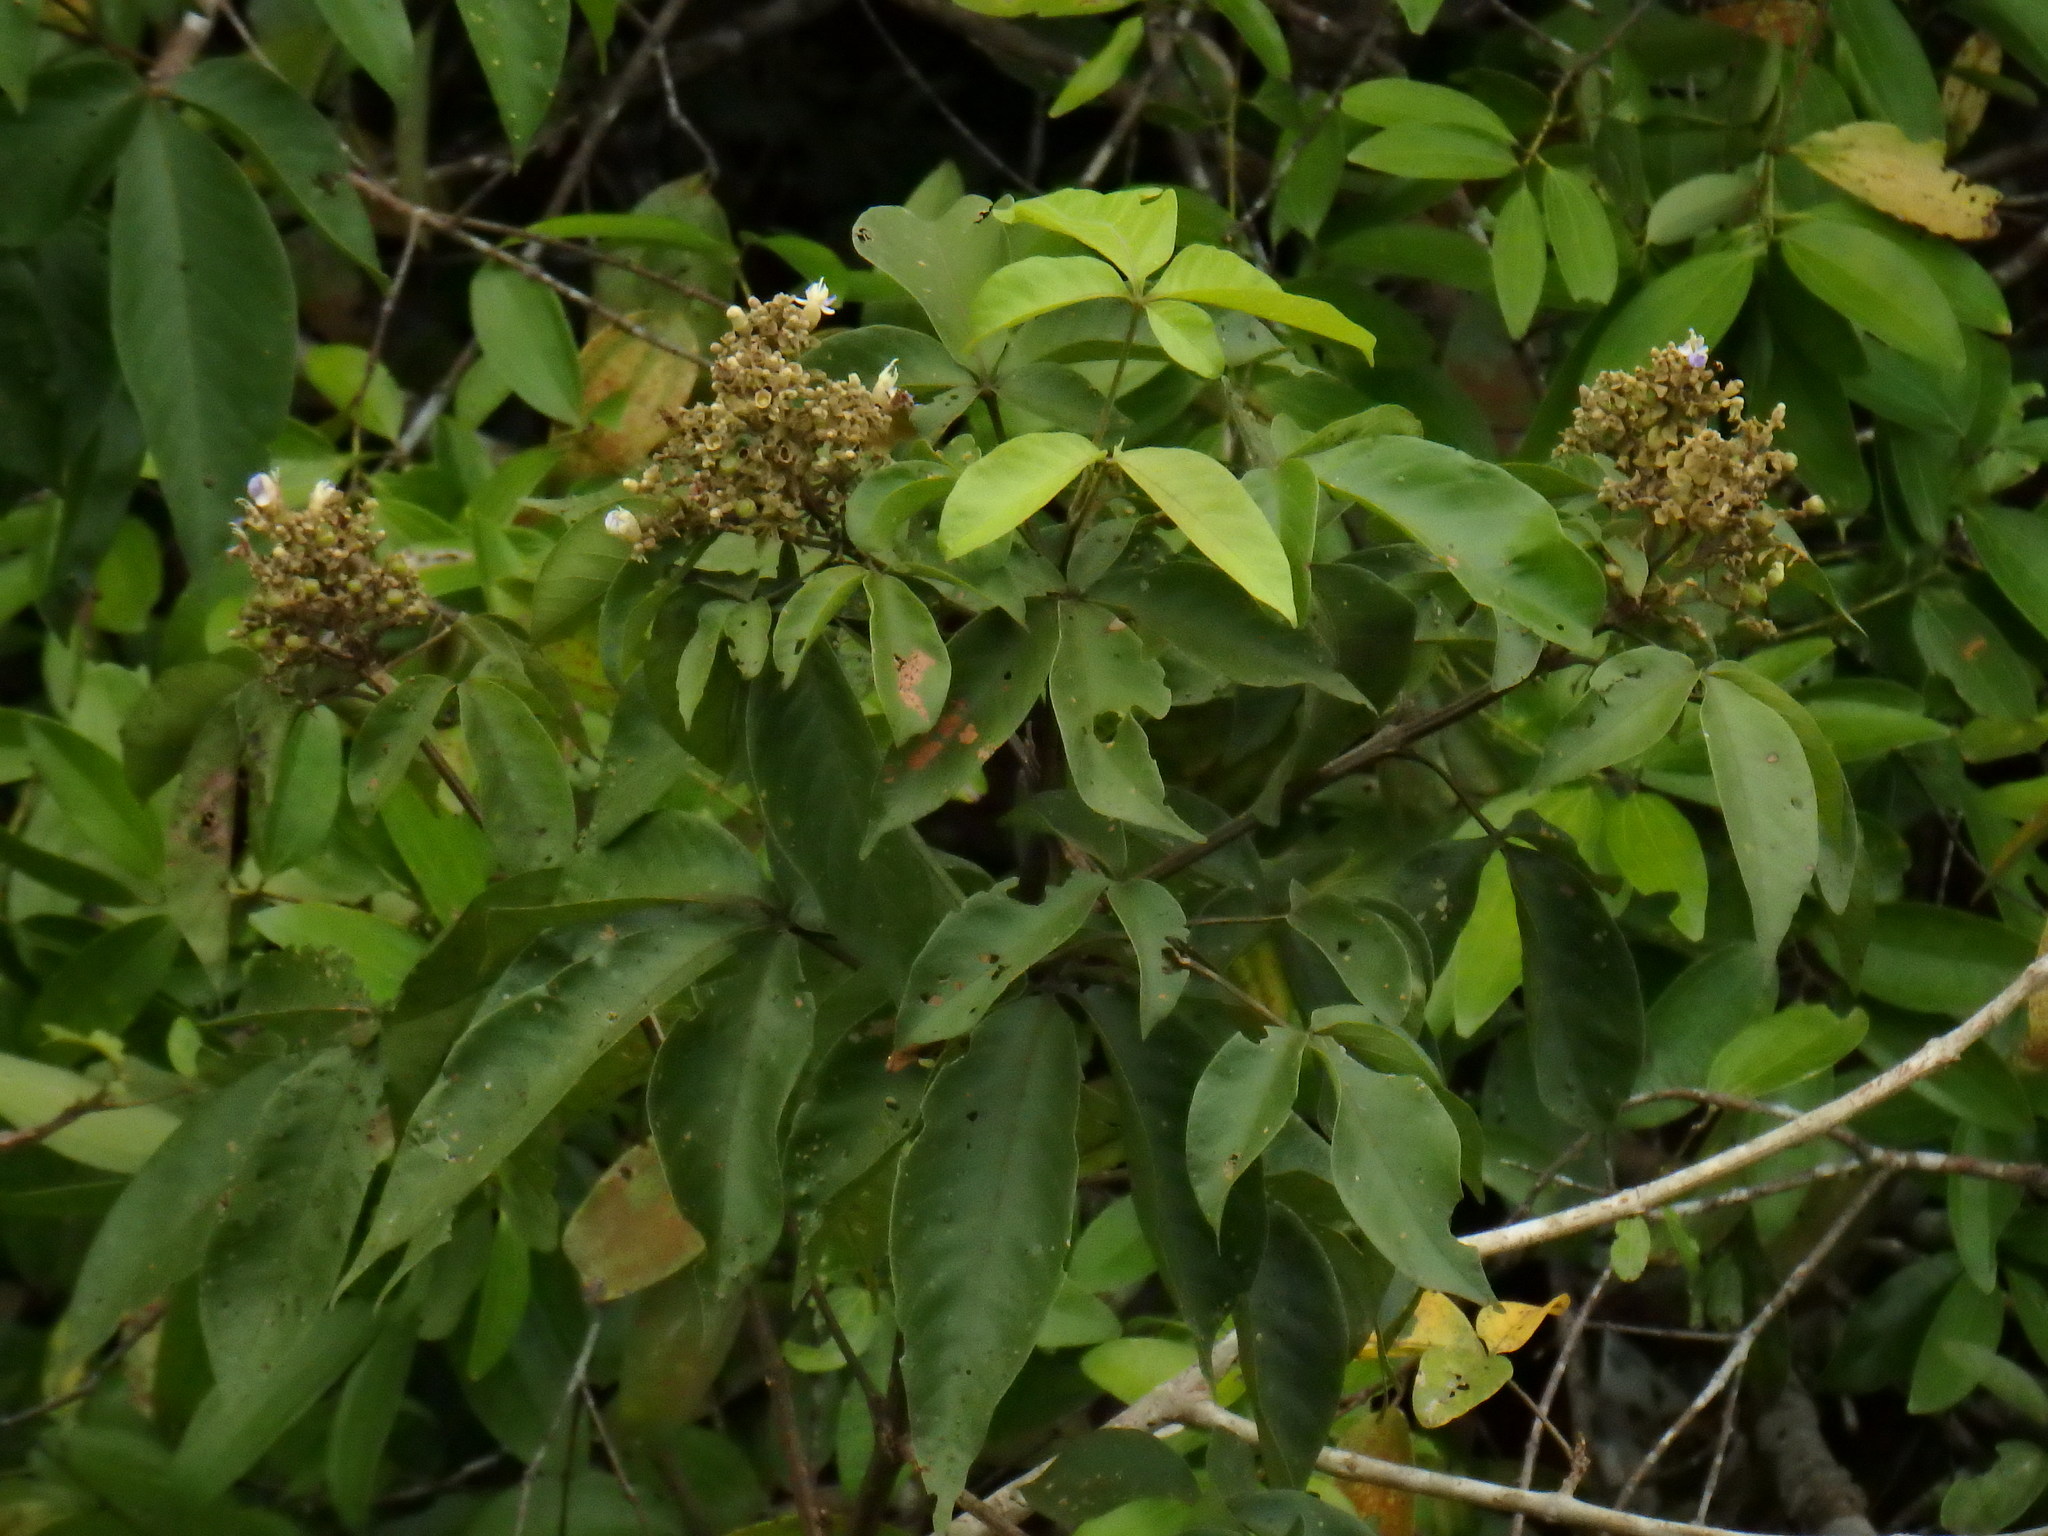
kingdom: Plantae
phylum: Tracheophyta
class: Magnoliopsida
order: Lamiales
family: Lamiaceae
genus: Vitex
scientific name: Vitex pinnata
